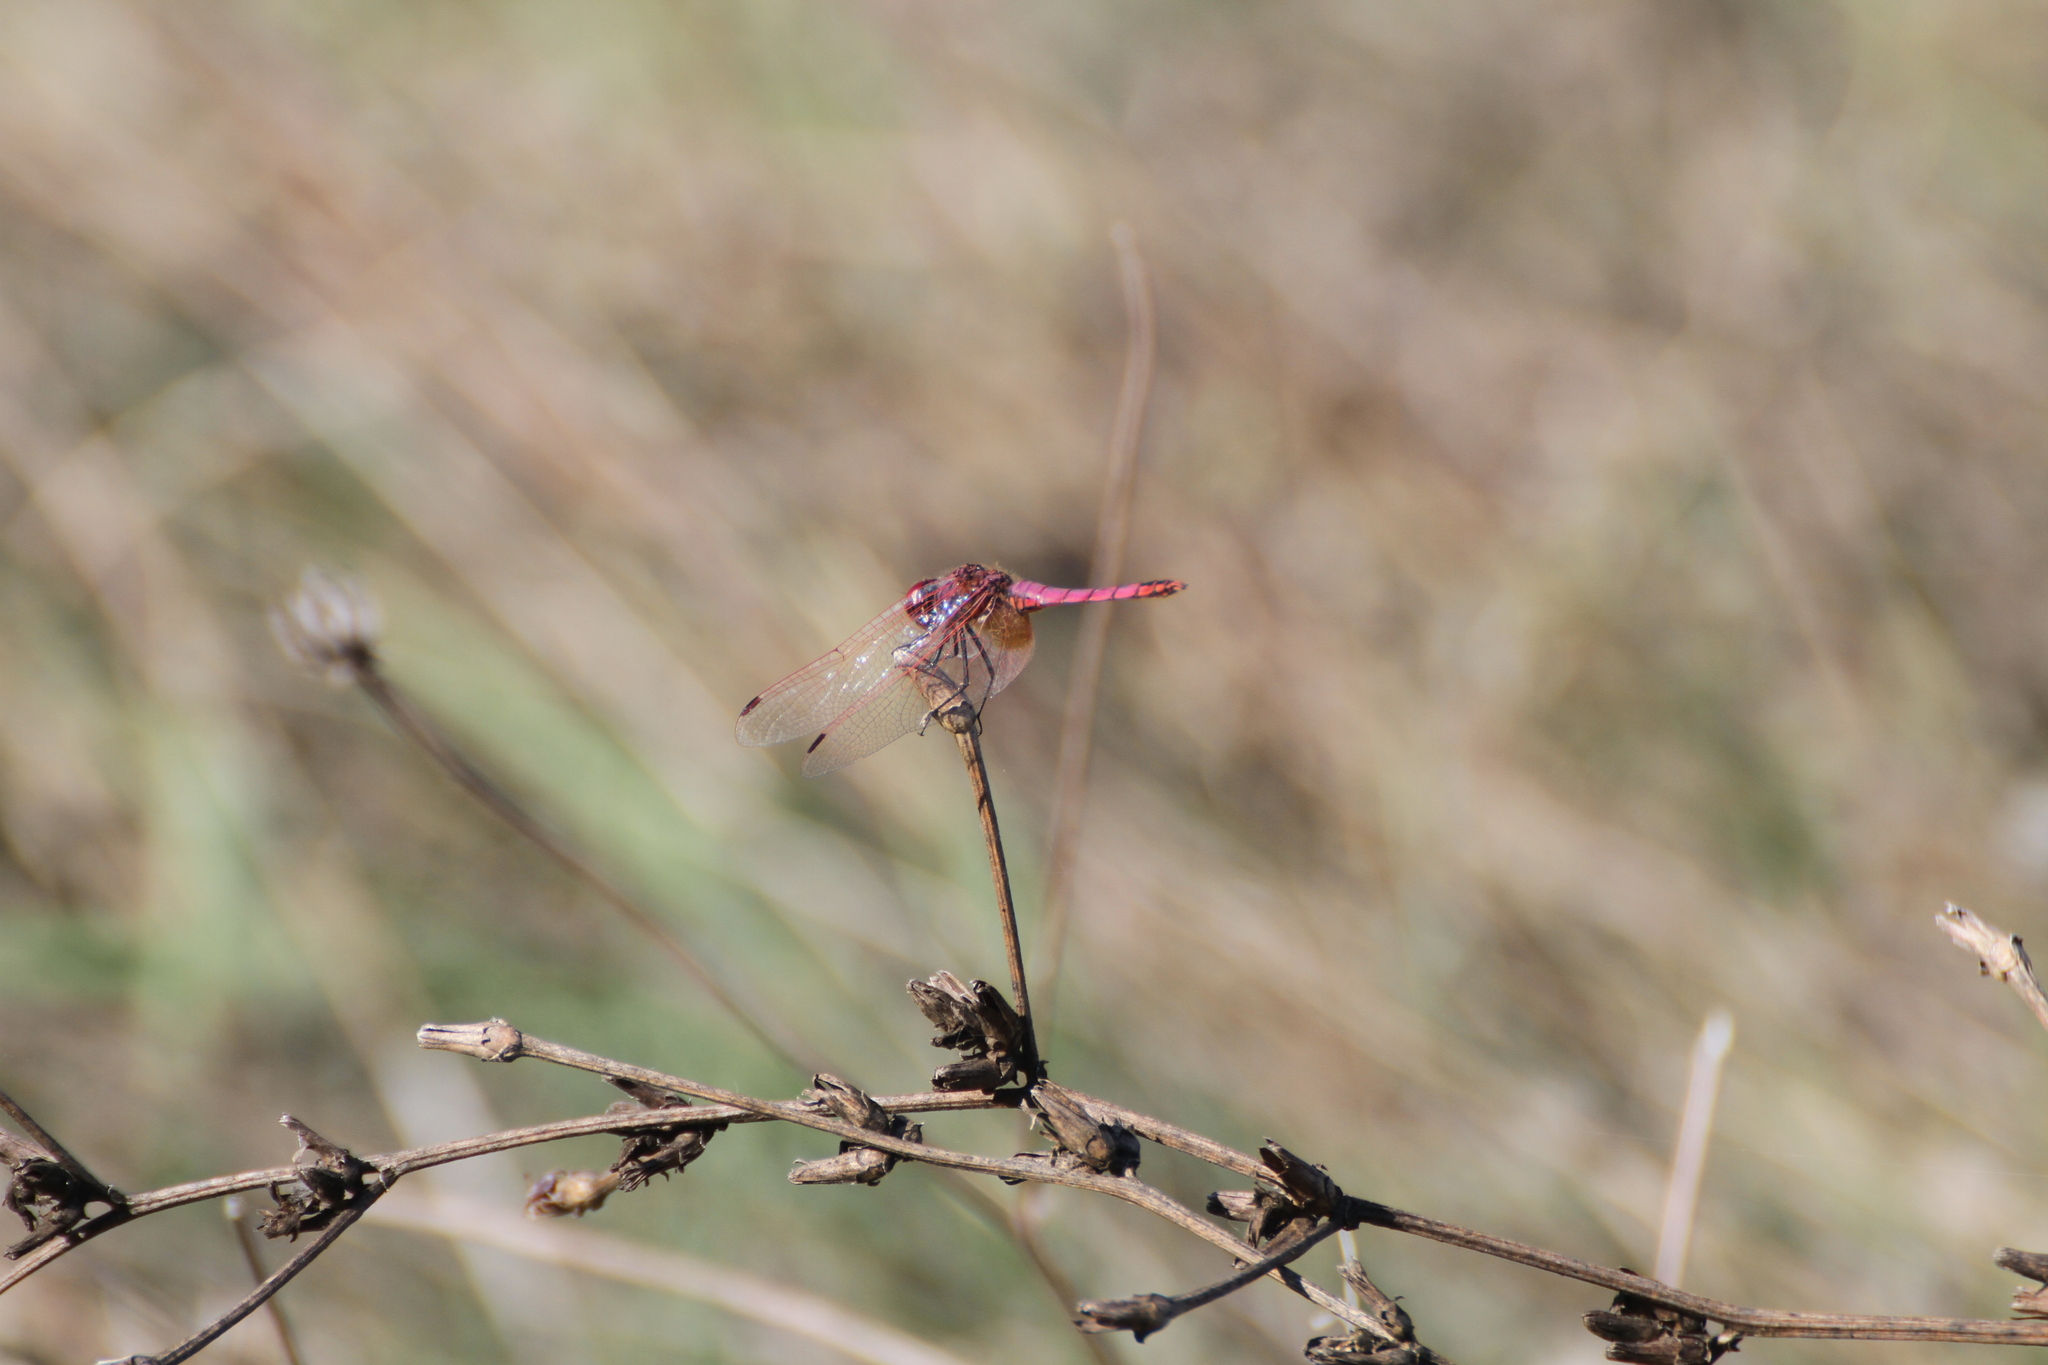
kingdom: Animalia
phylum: Arthropoda
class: Insecta
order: Odonata
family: Libellulidae
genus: Trithemis
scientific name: Trithemis annulata
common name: Violet dropwing
